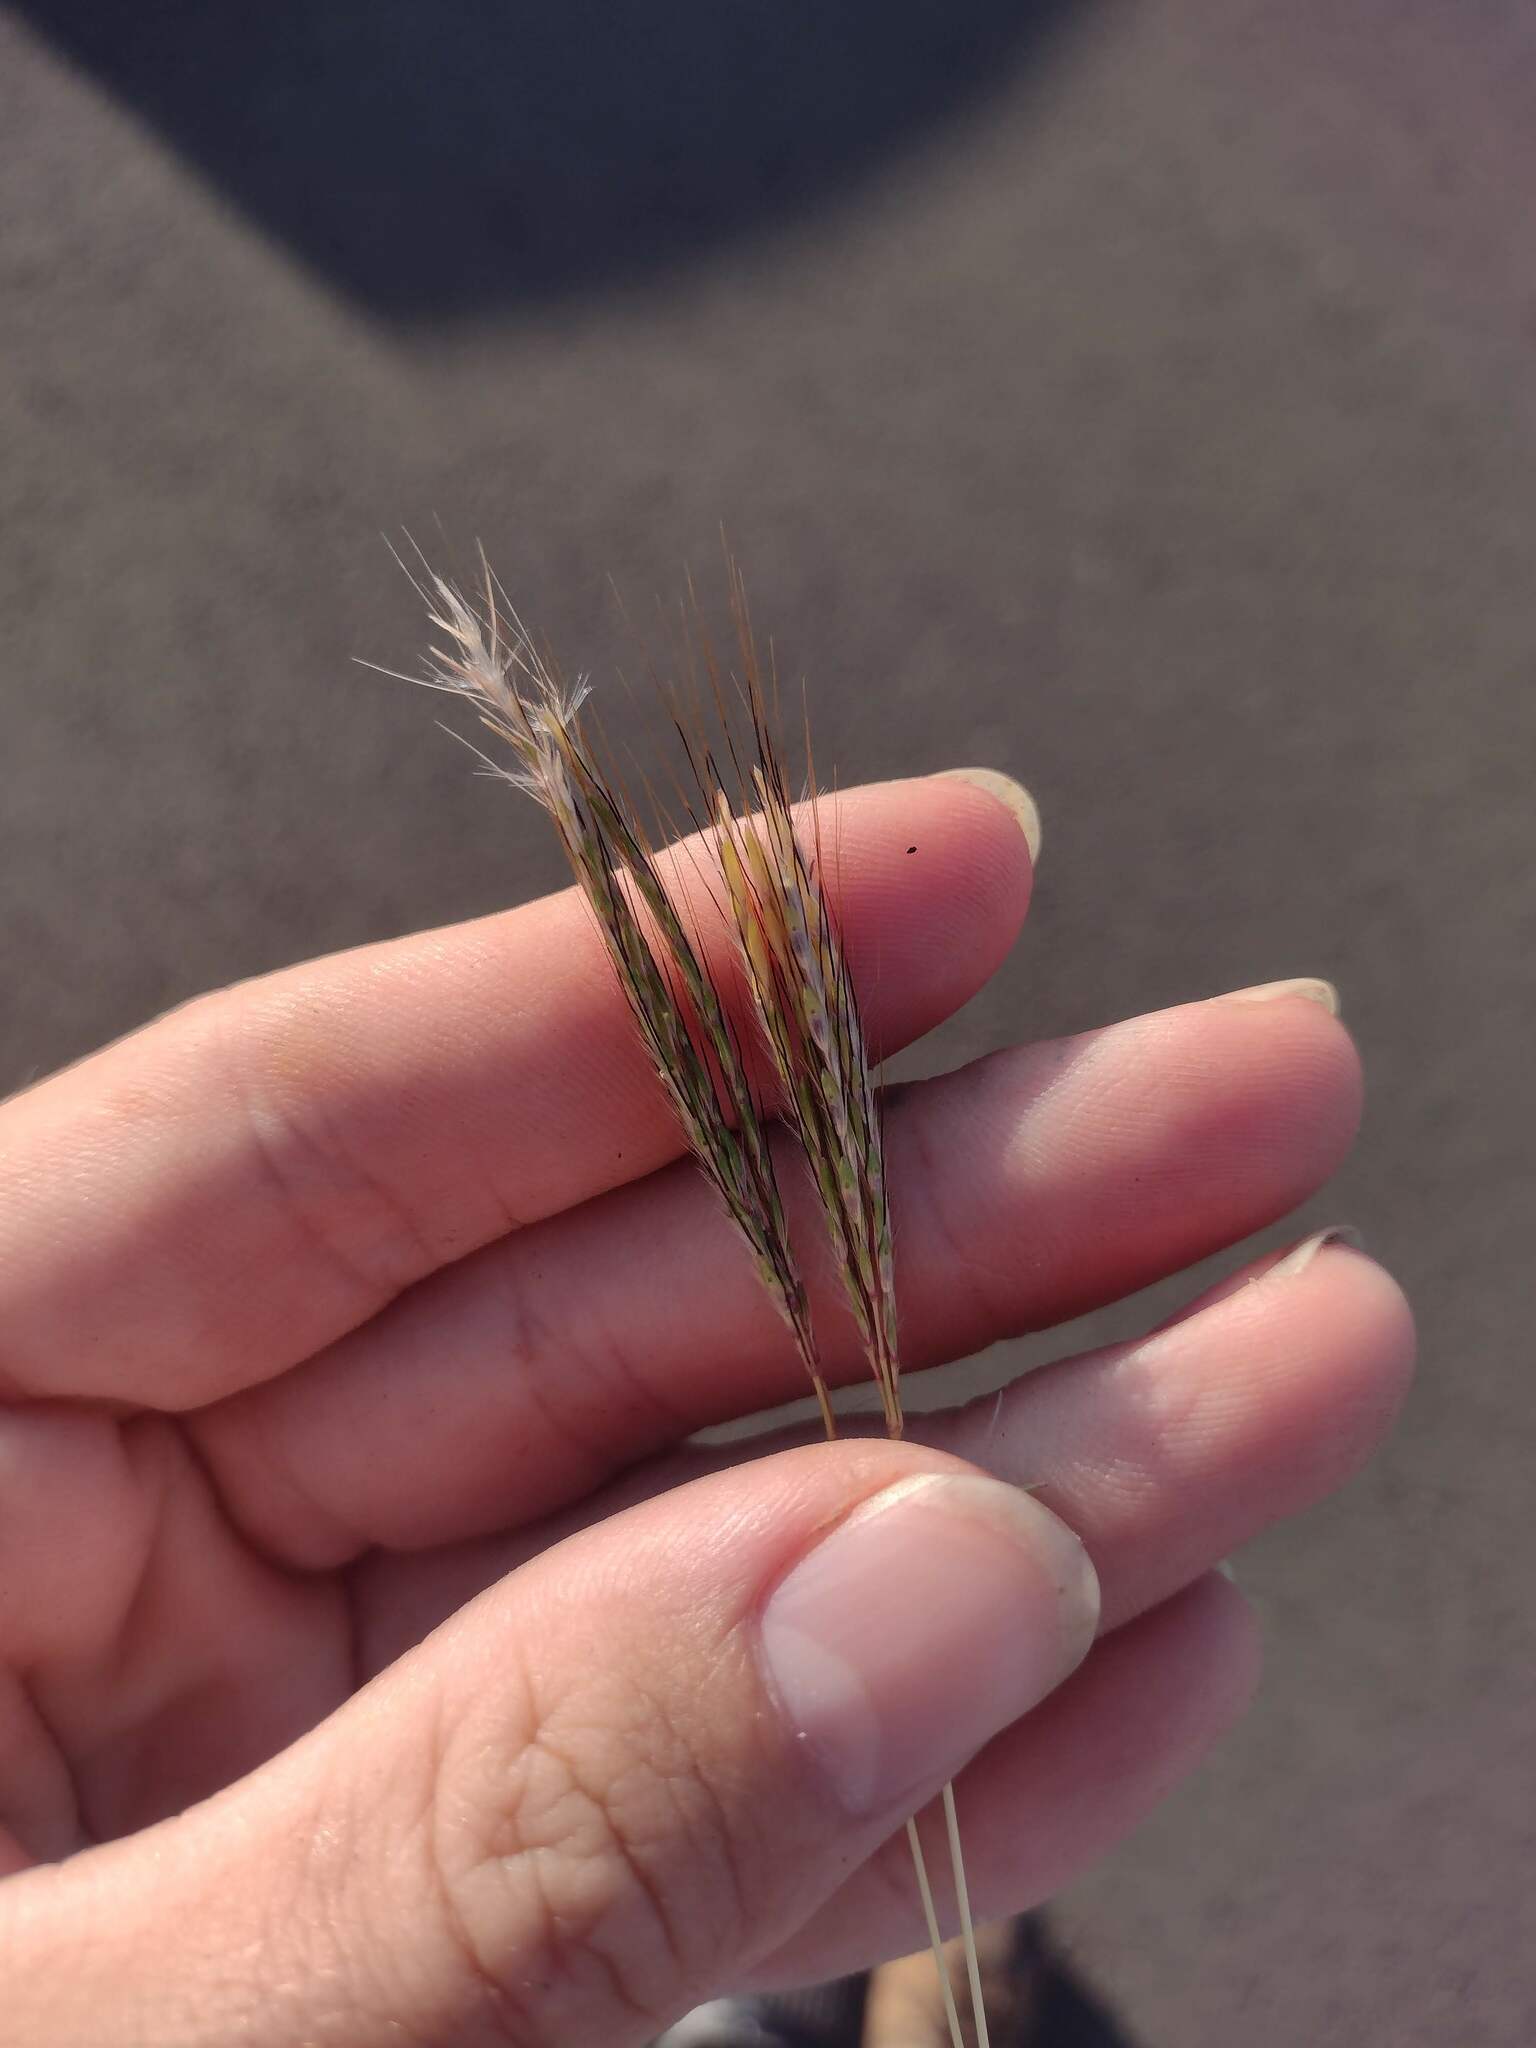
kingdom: Plantae
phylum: Tracheophyta
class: Liliopsida
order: Poales
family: Poaceae
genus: Bothriochloa
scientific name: Bothriochloa pertusa
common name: Pitted beardgrass
